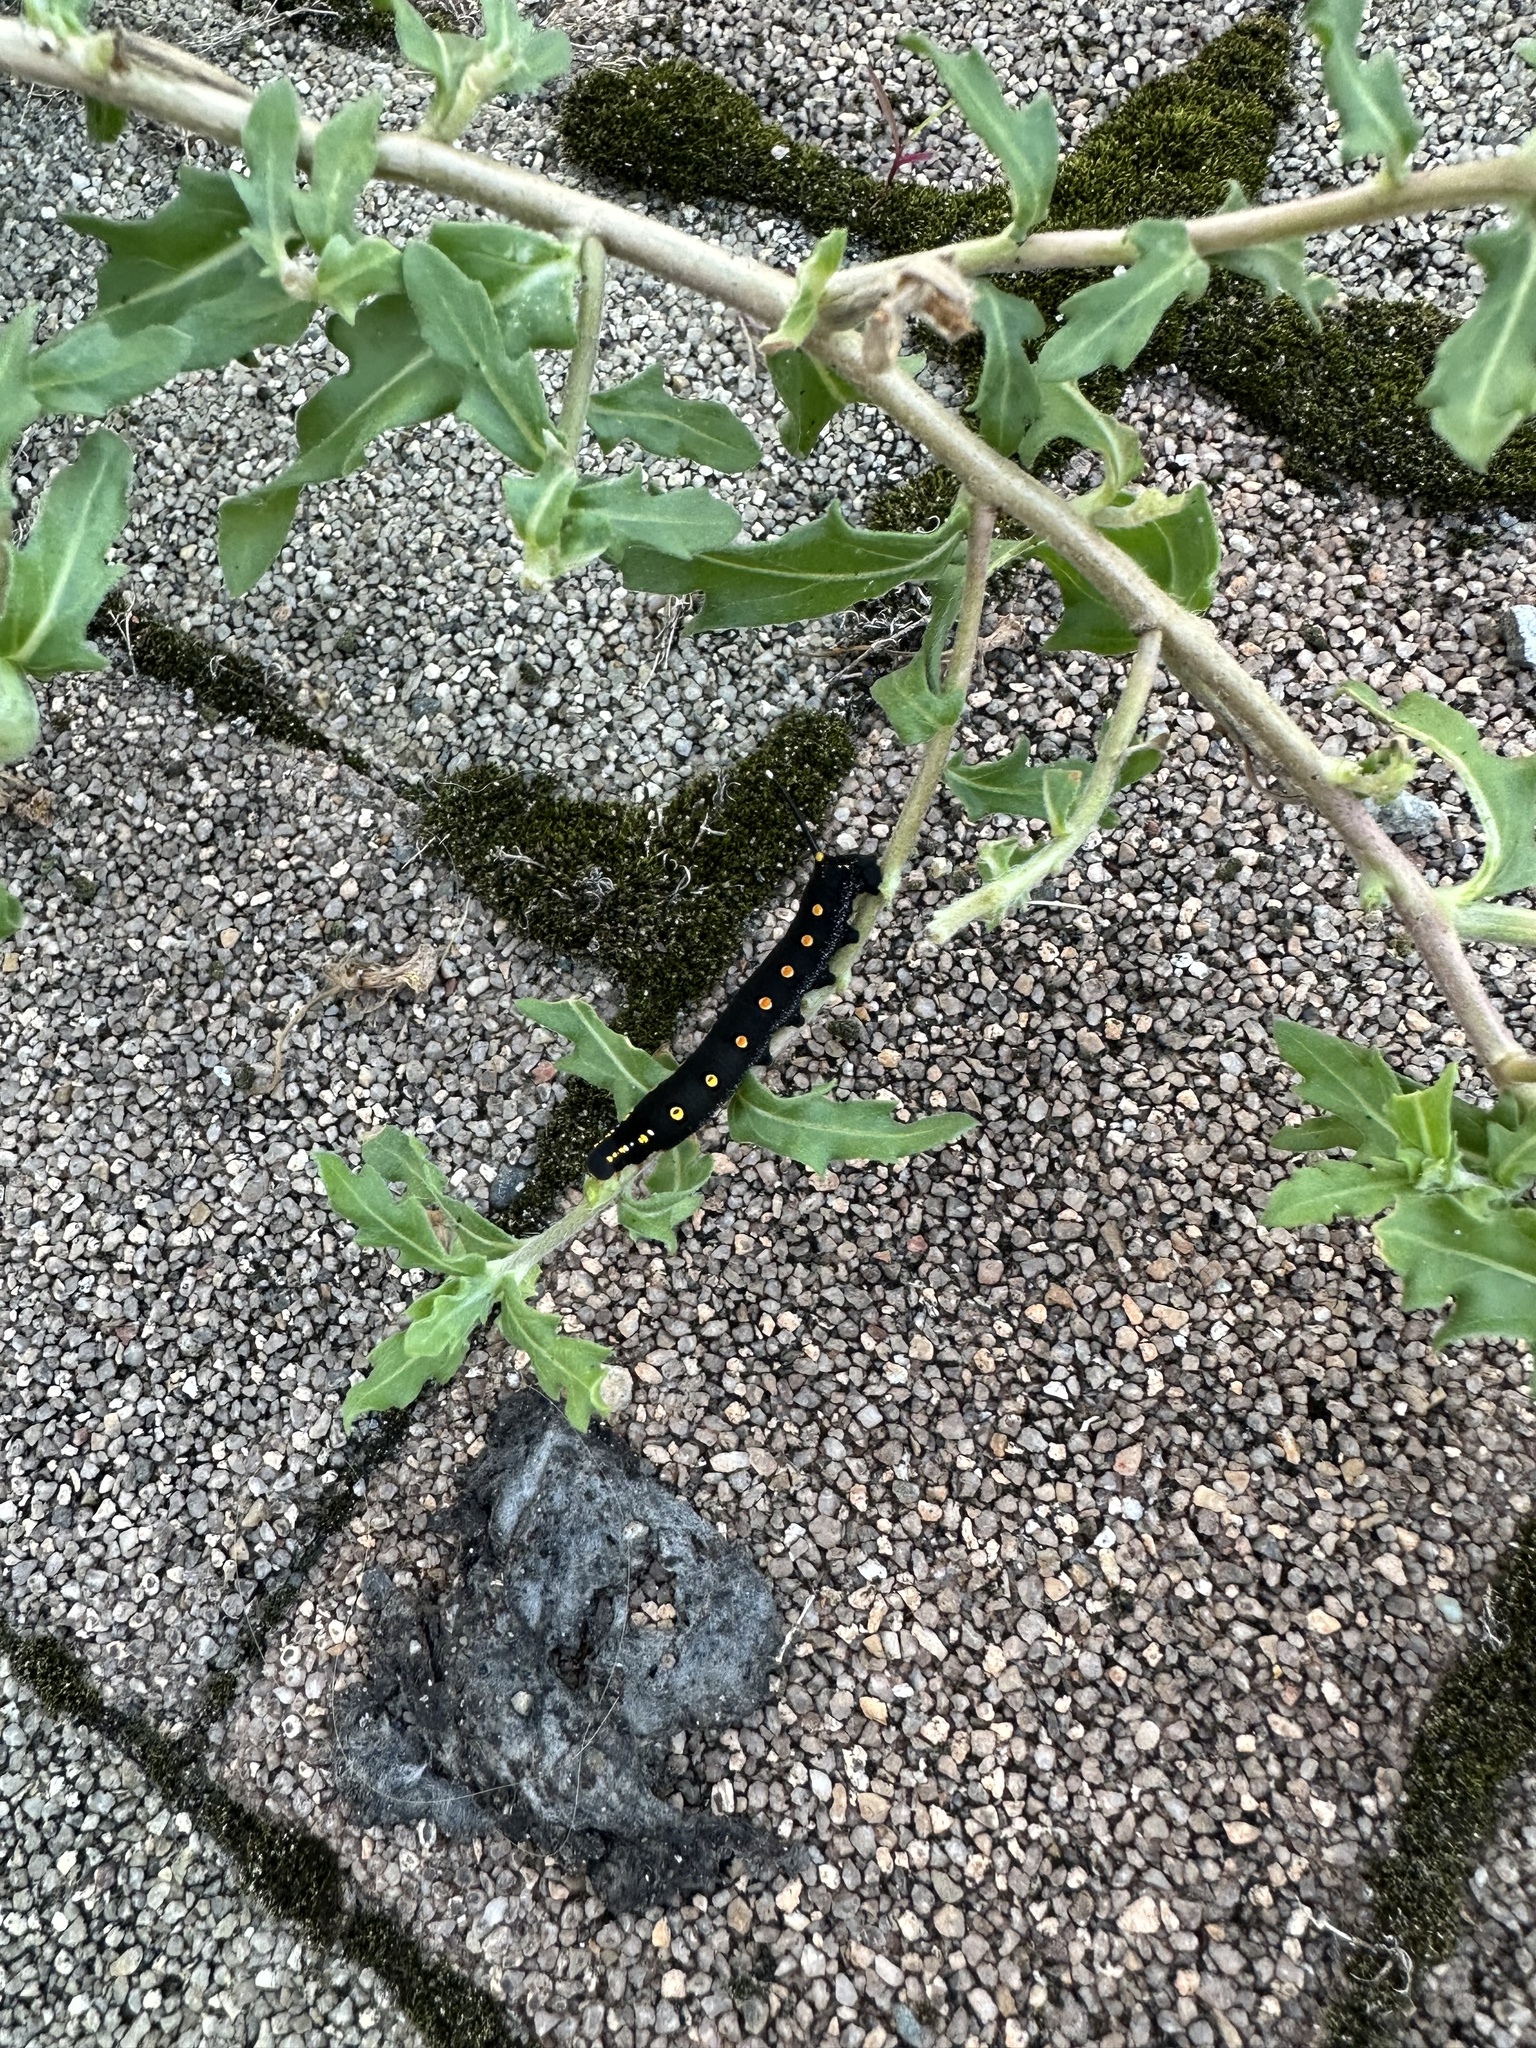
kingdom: Animalia
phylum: Arthropoda
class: Insecta
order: Lepidoptera
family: Sphingidae
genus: Theretra
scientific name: Theretra oldenlandiae
